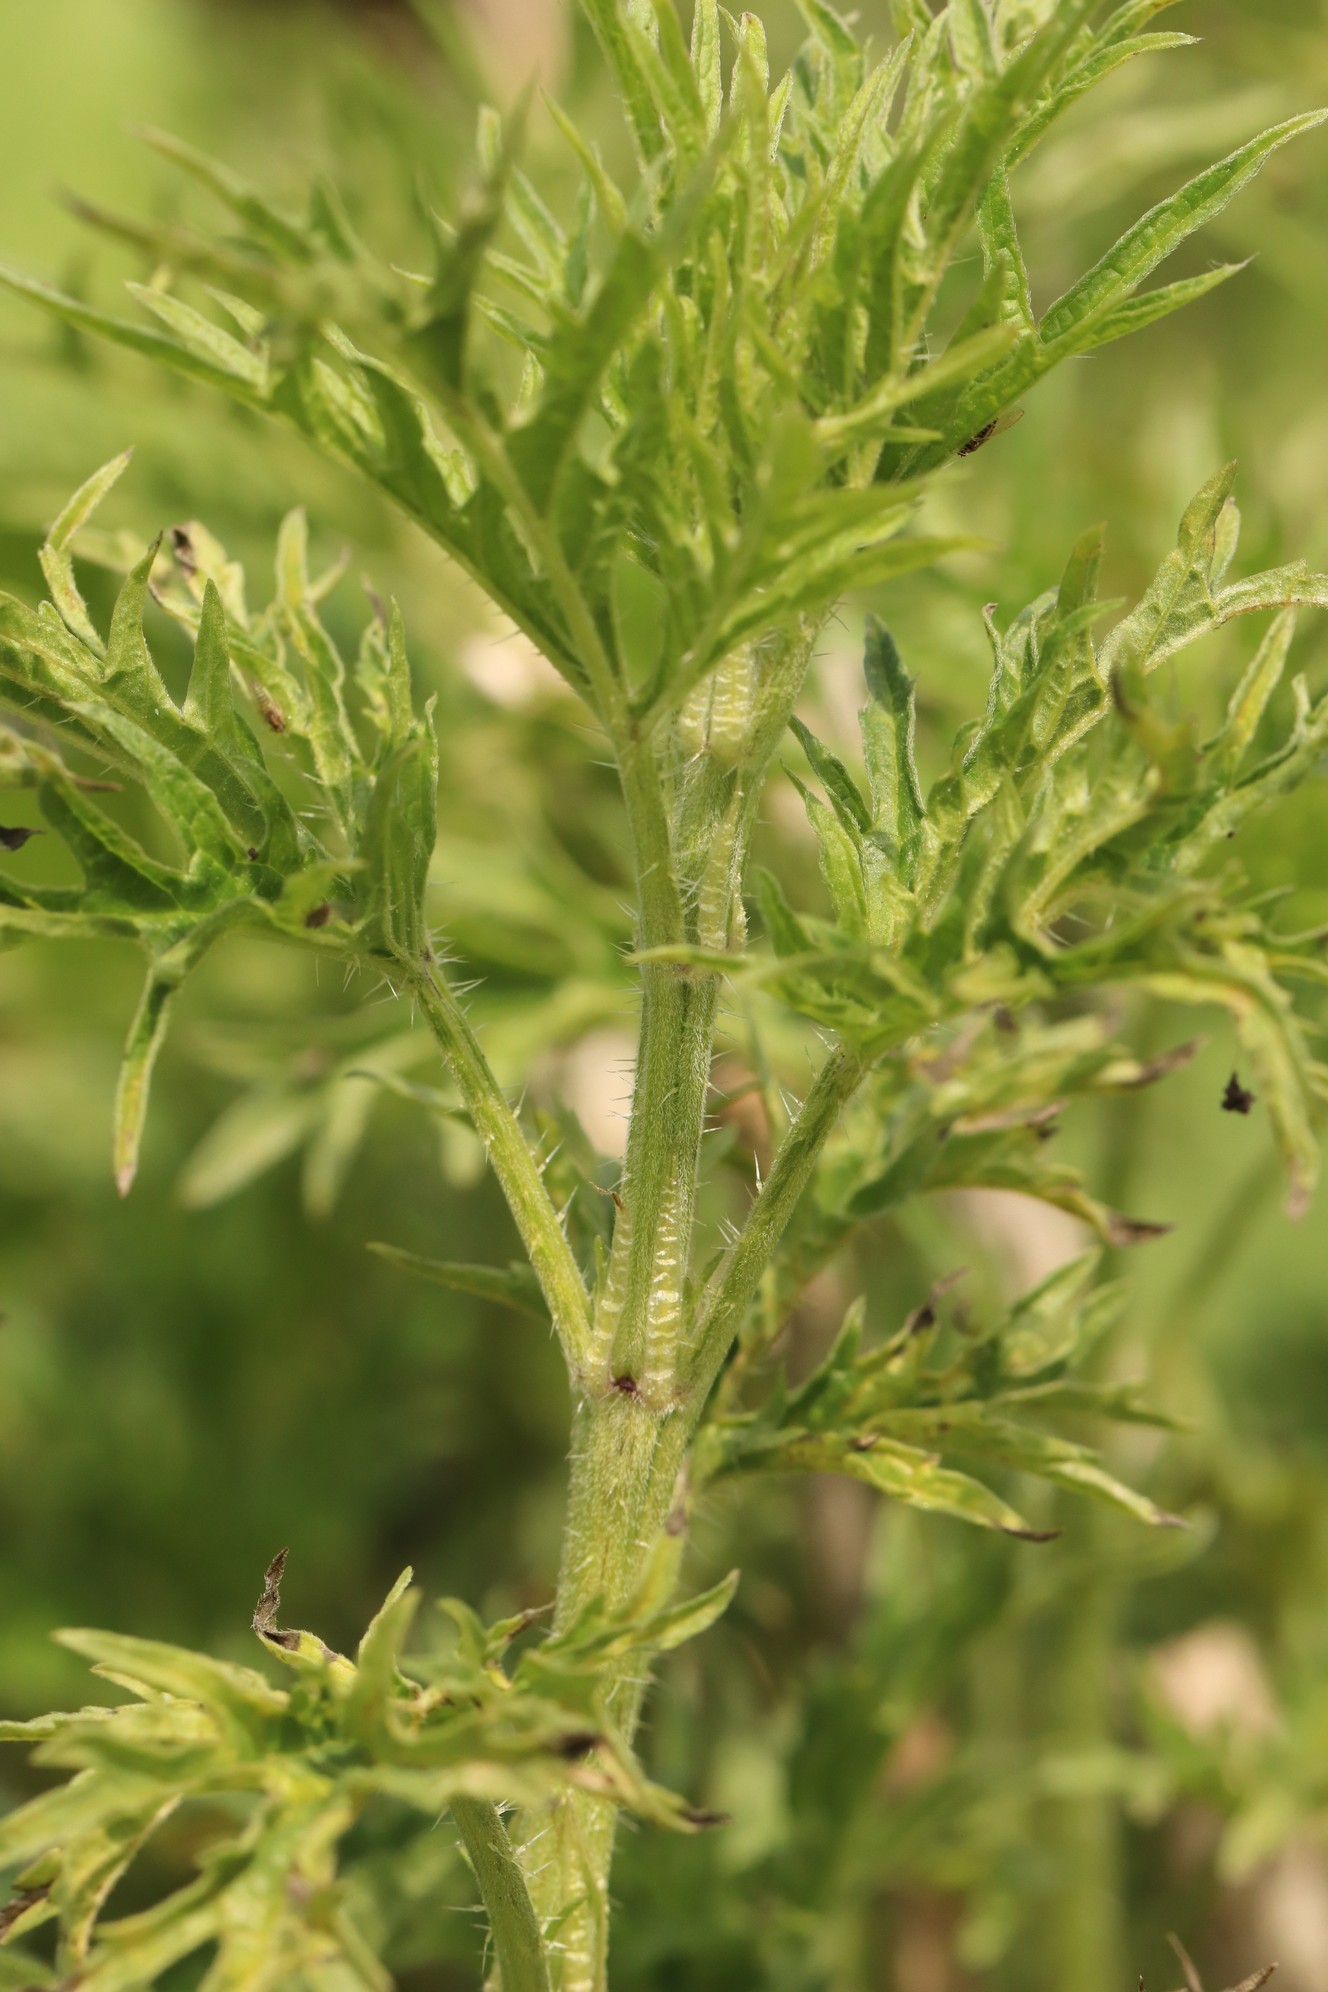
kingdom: Plantae
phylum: Tracheophyta
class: Magnoliopsida
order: Rosales
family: Urticaceae
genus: Urtica
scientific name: Urtica cannabina
